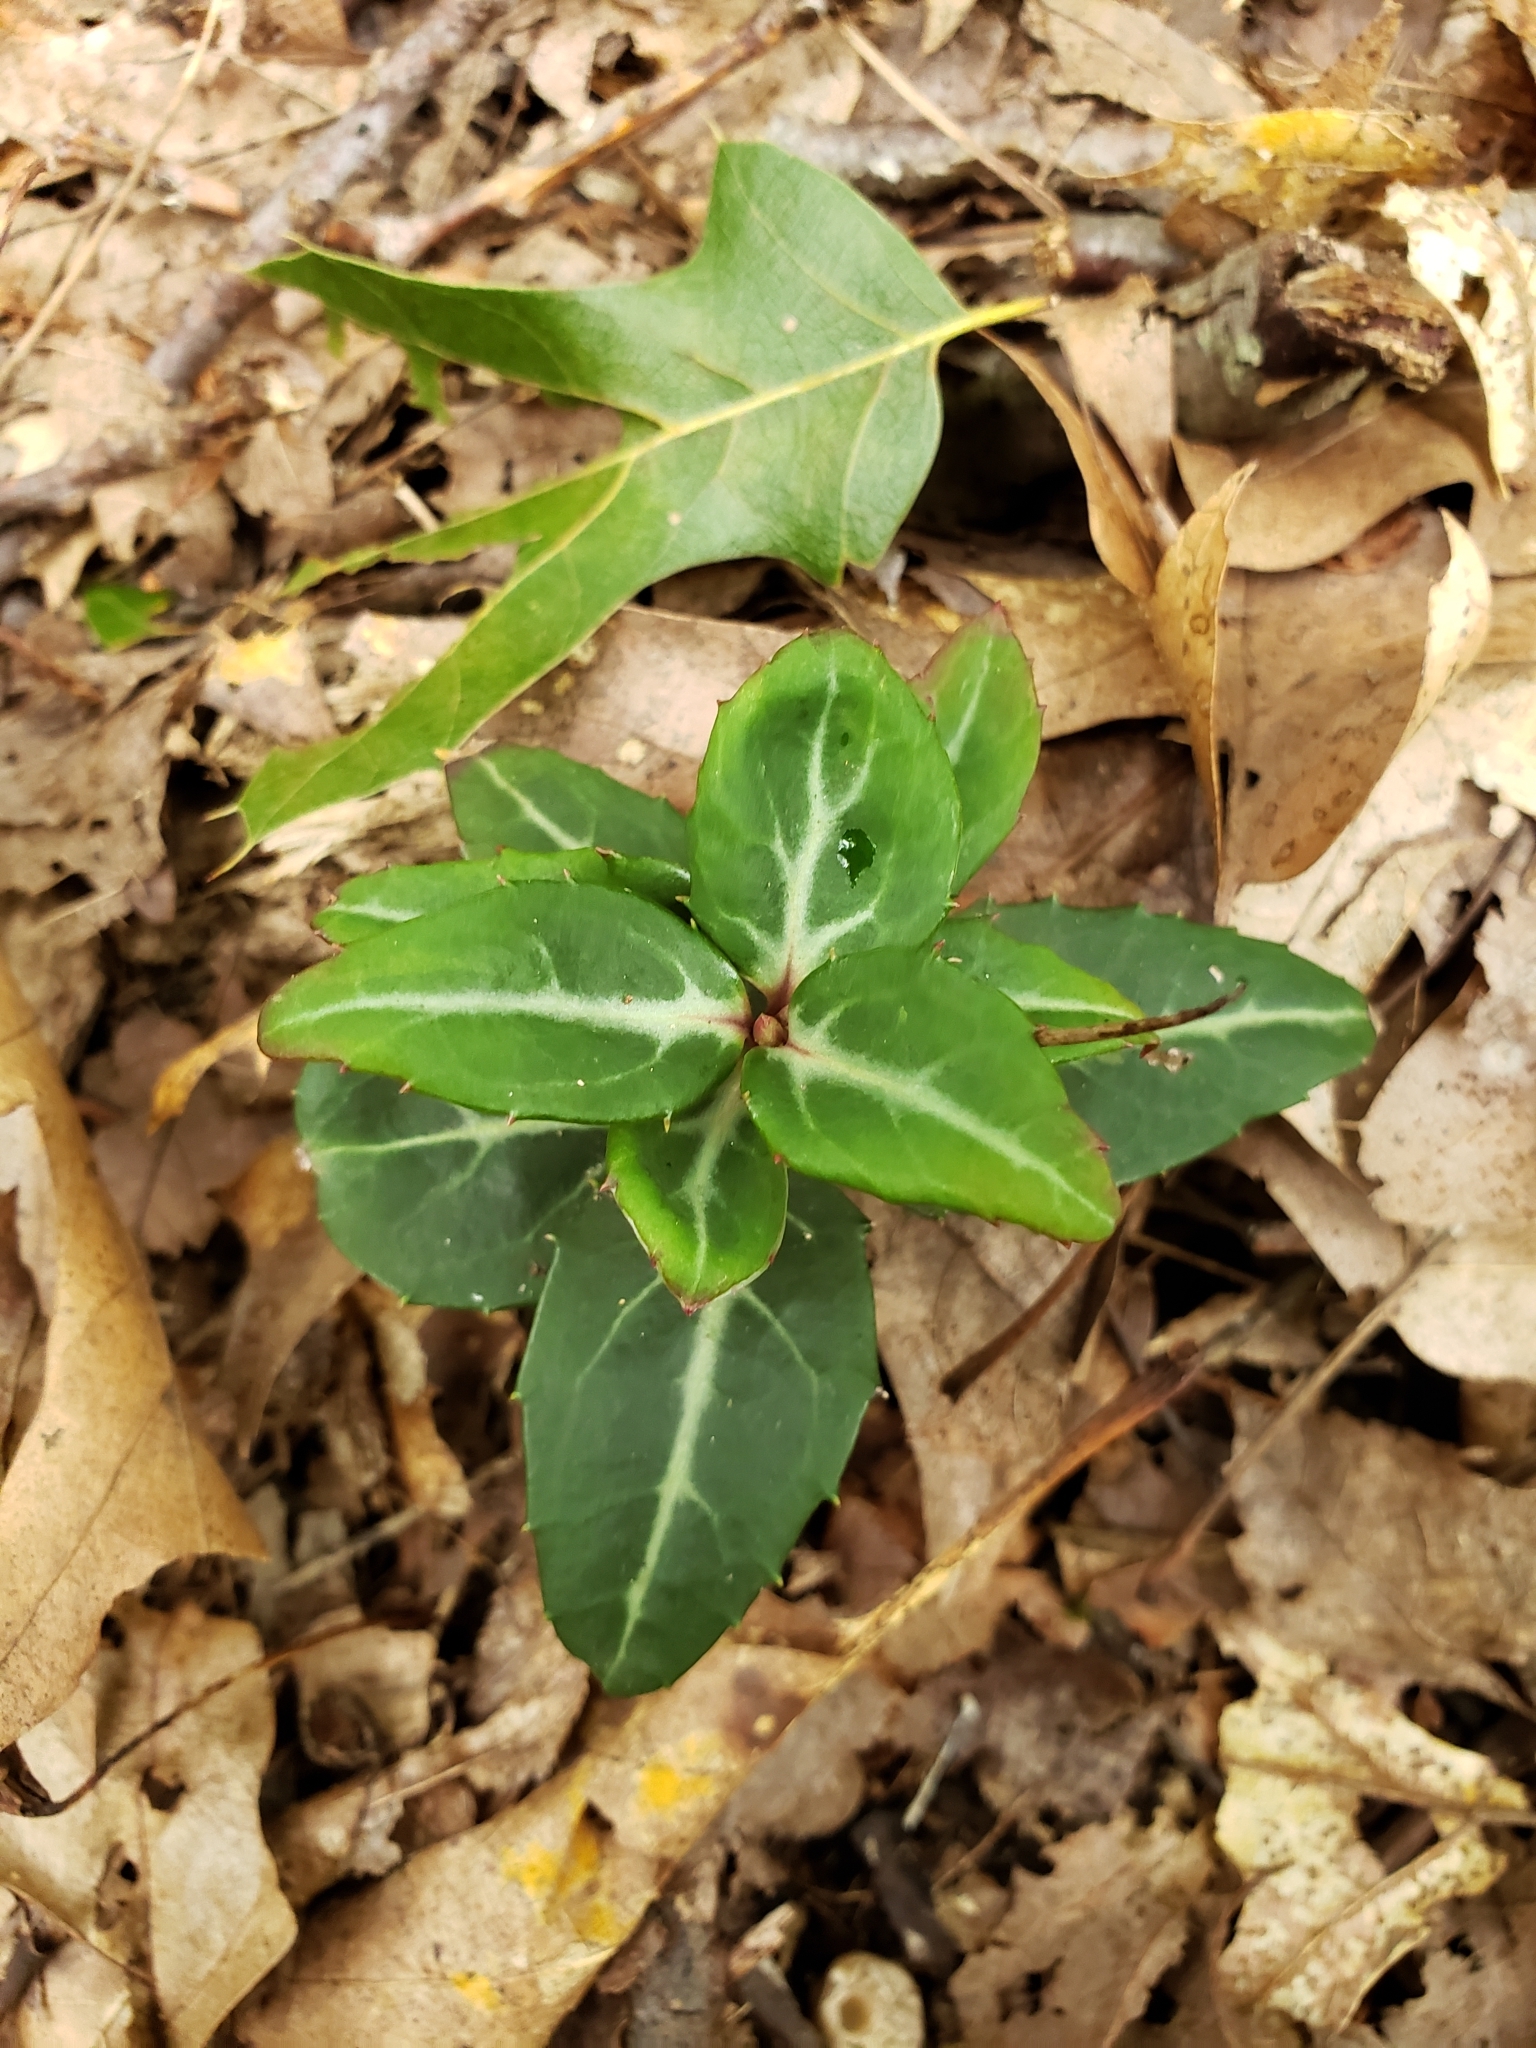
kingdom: Plantae
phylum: Tracheophyta
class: Magnoliopsida
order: Ericales
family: Ericaceae
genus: Chimaphila
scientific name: Chimaphila maculata
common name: Spotted pipsissewa
